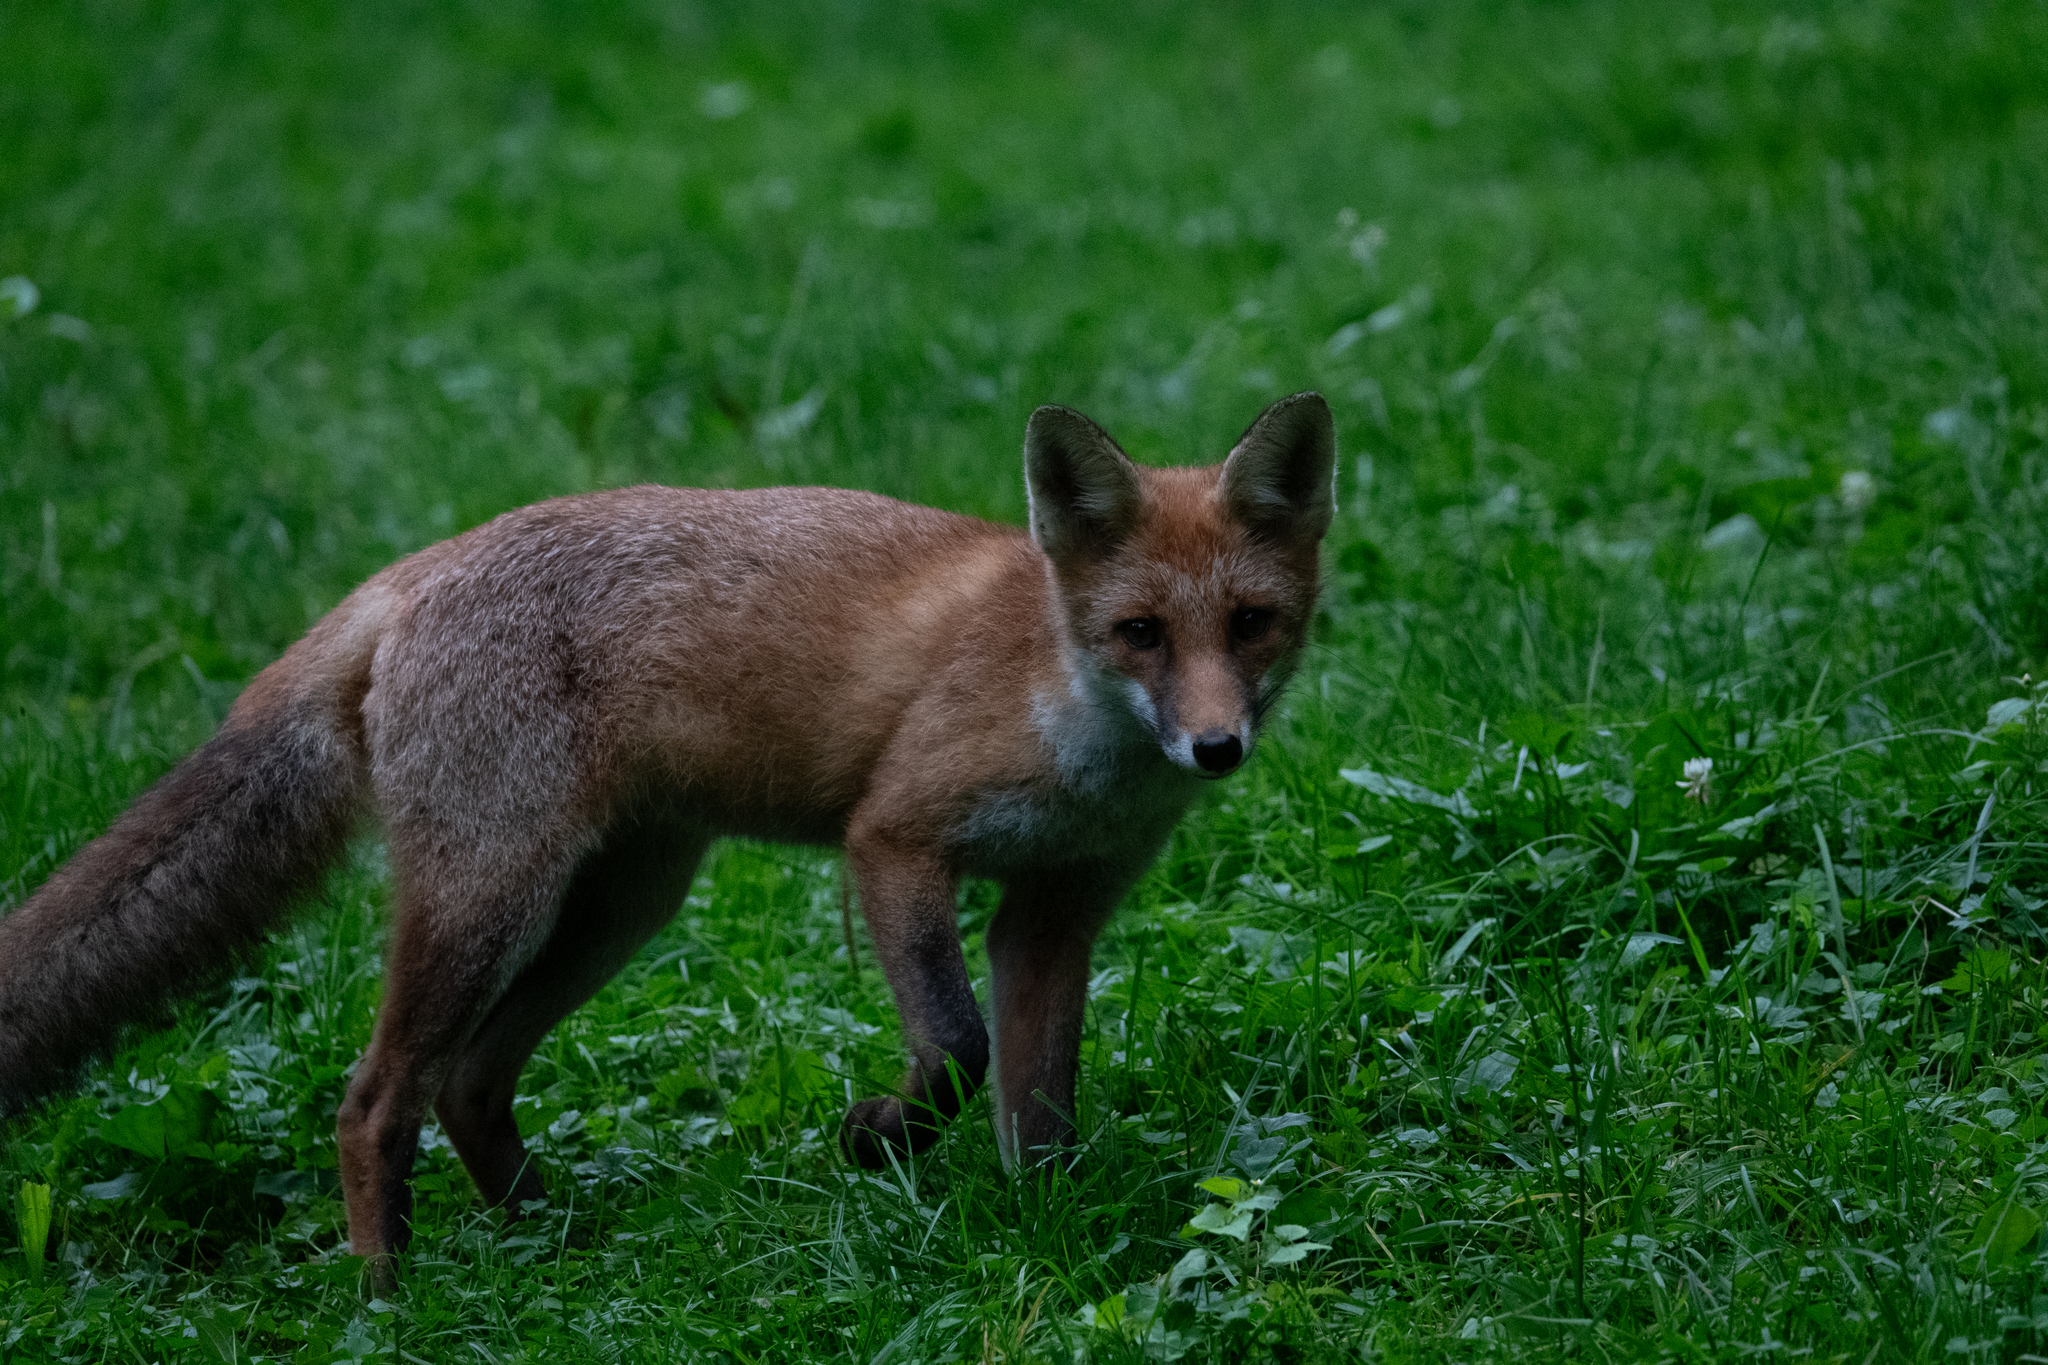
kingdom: Animalia
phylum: Chordata
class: Mammalia
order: Carnivora
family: Canidae
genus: Vulpes
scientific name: Vulpes vulpes
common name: Red fox
